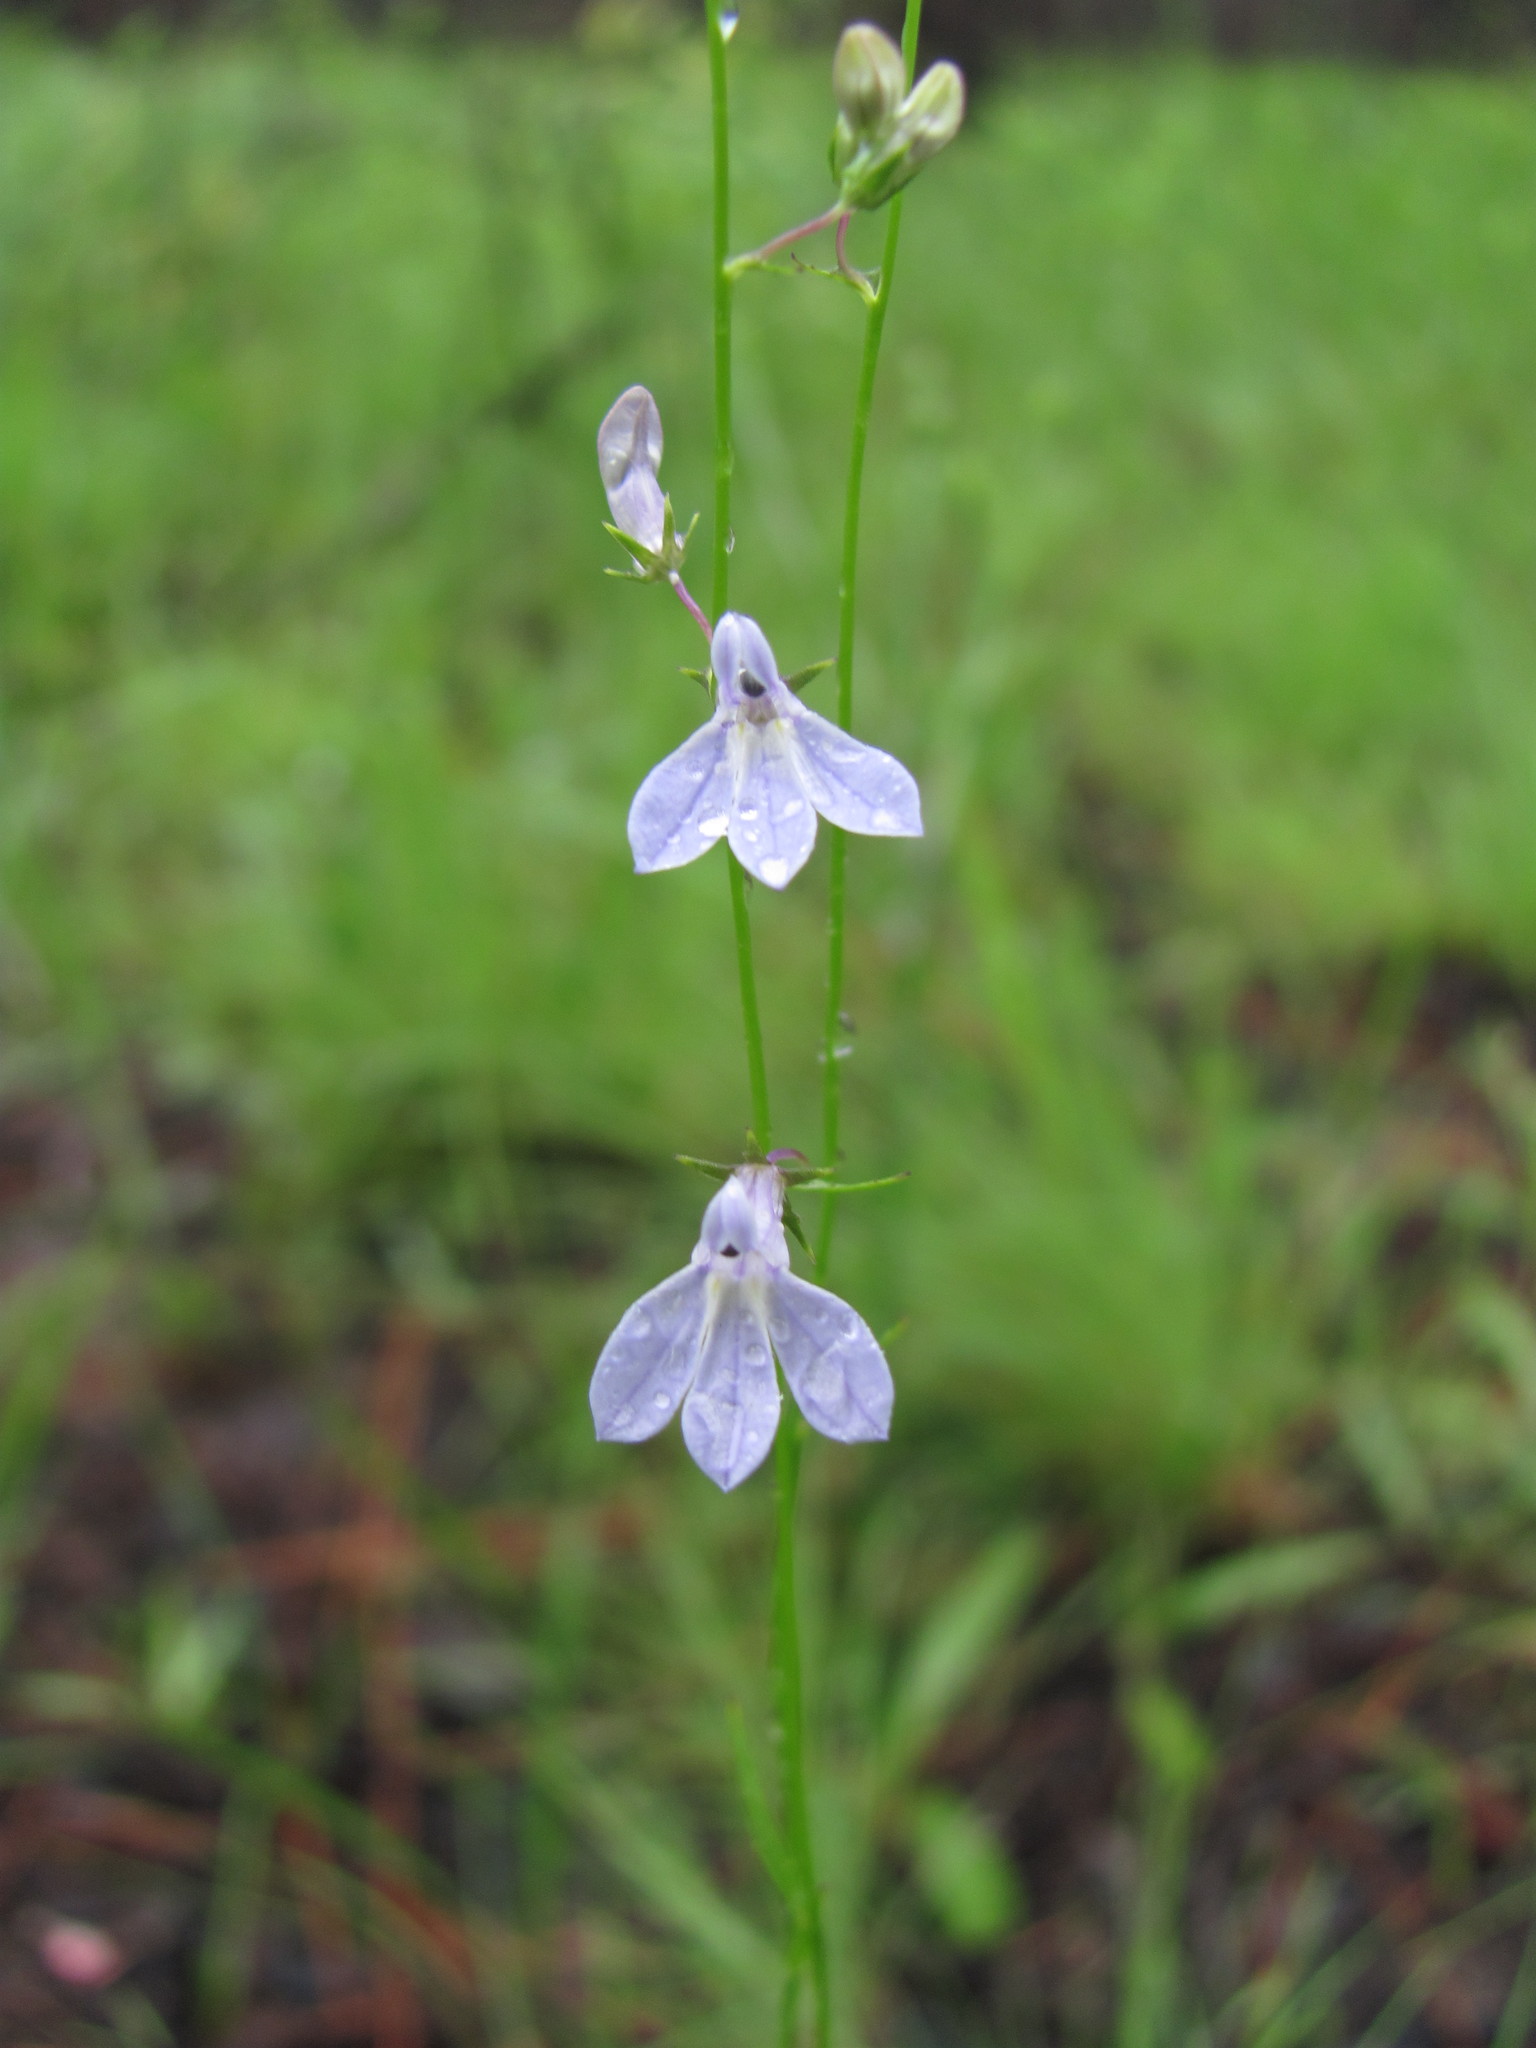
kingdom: Plantae
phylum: Tracheophyta
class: Magnoliopsida
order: Asterales
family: Campanulaceae
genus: Lobelia
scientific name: Lobelia nuttallii
